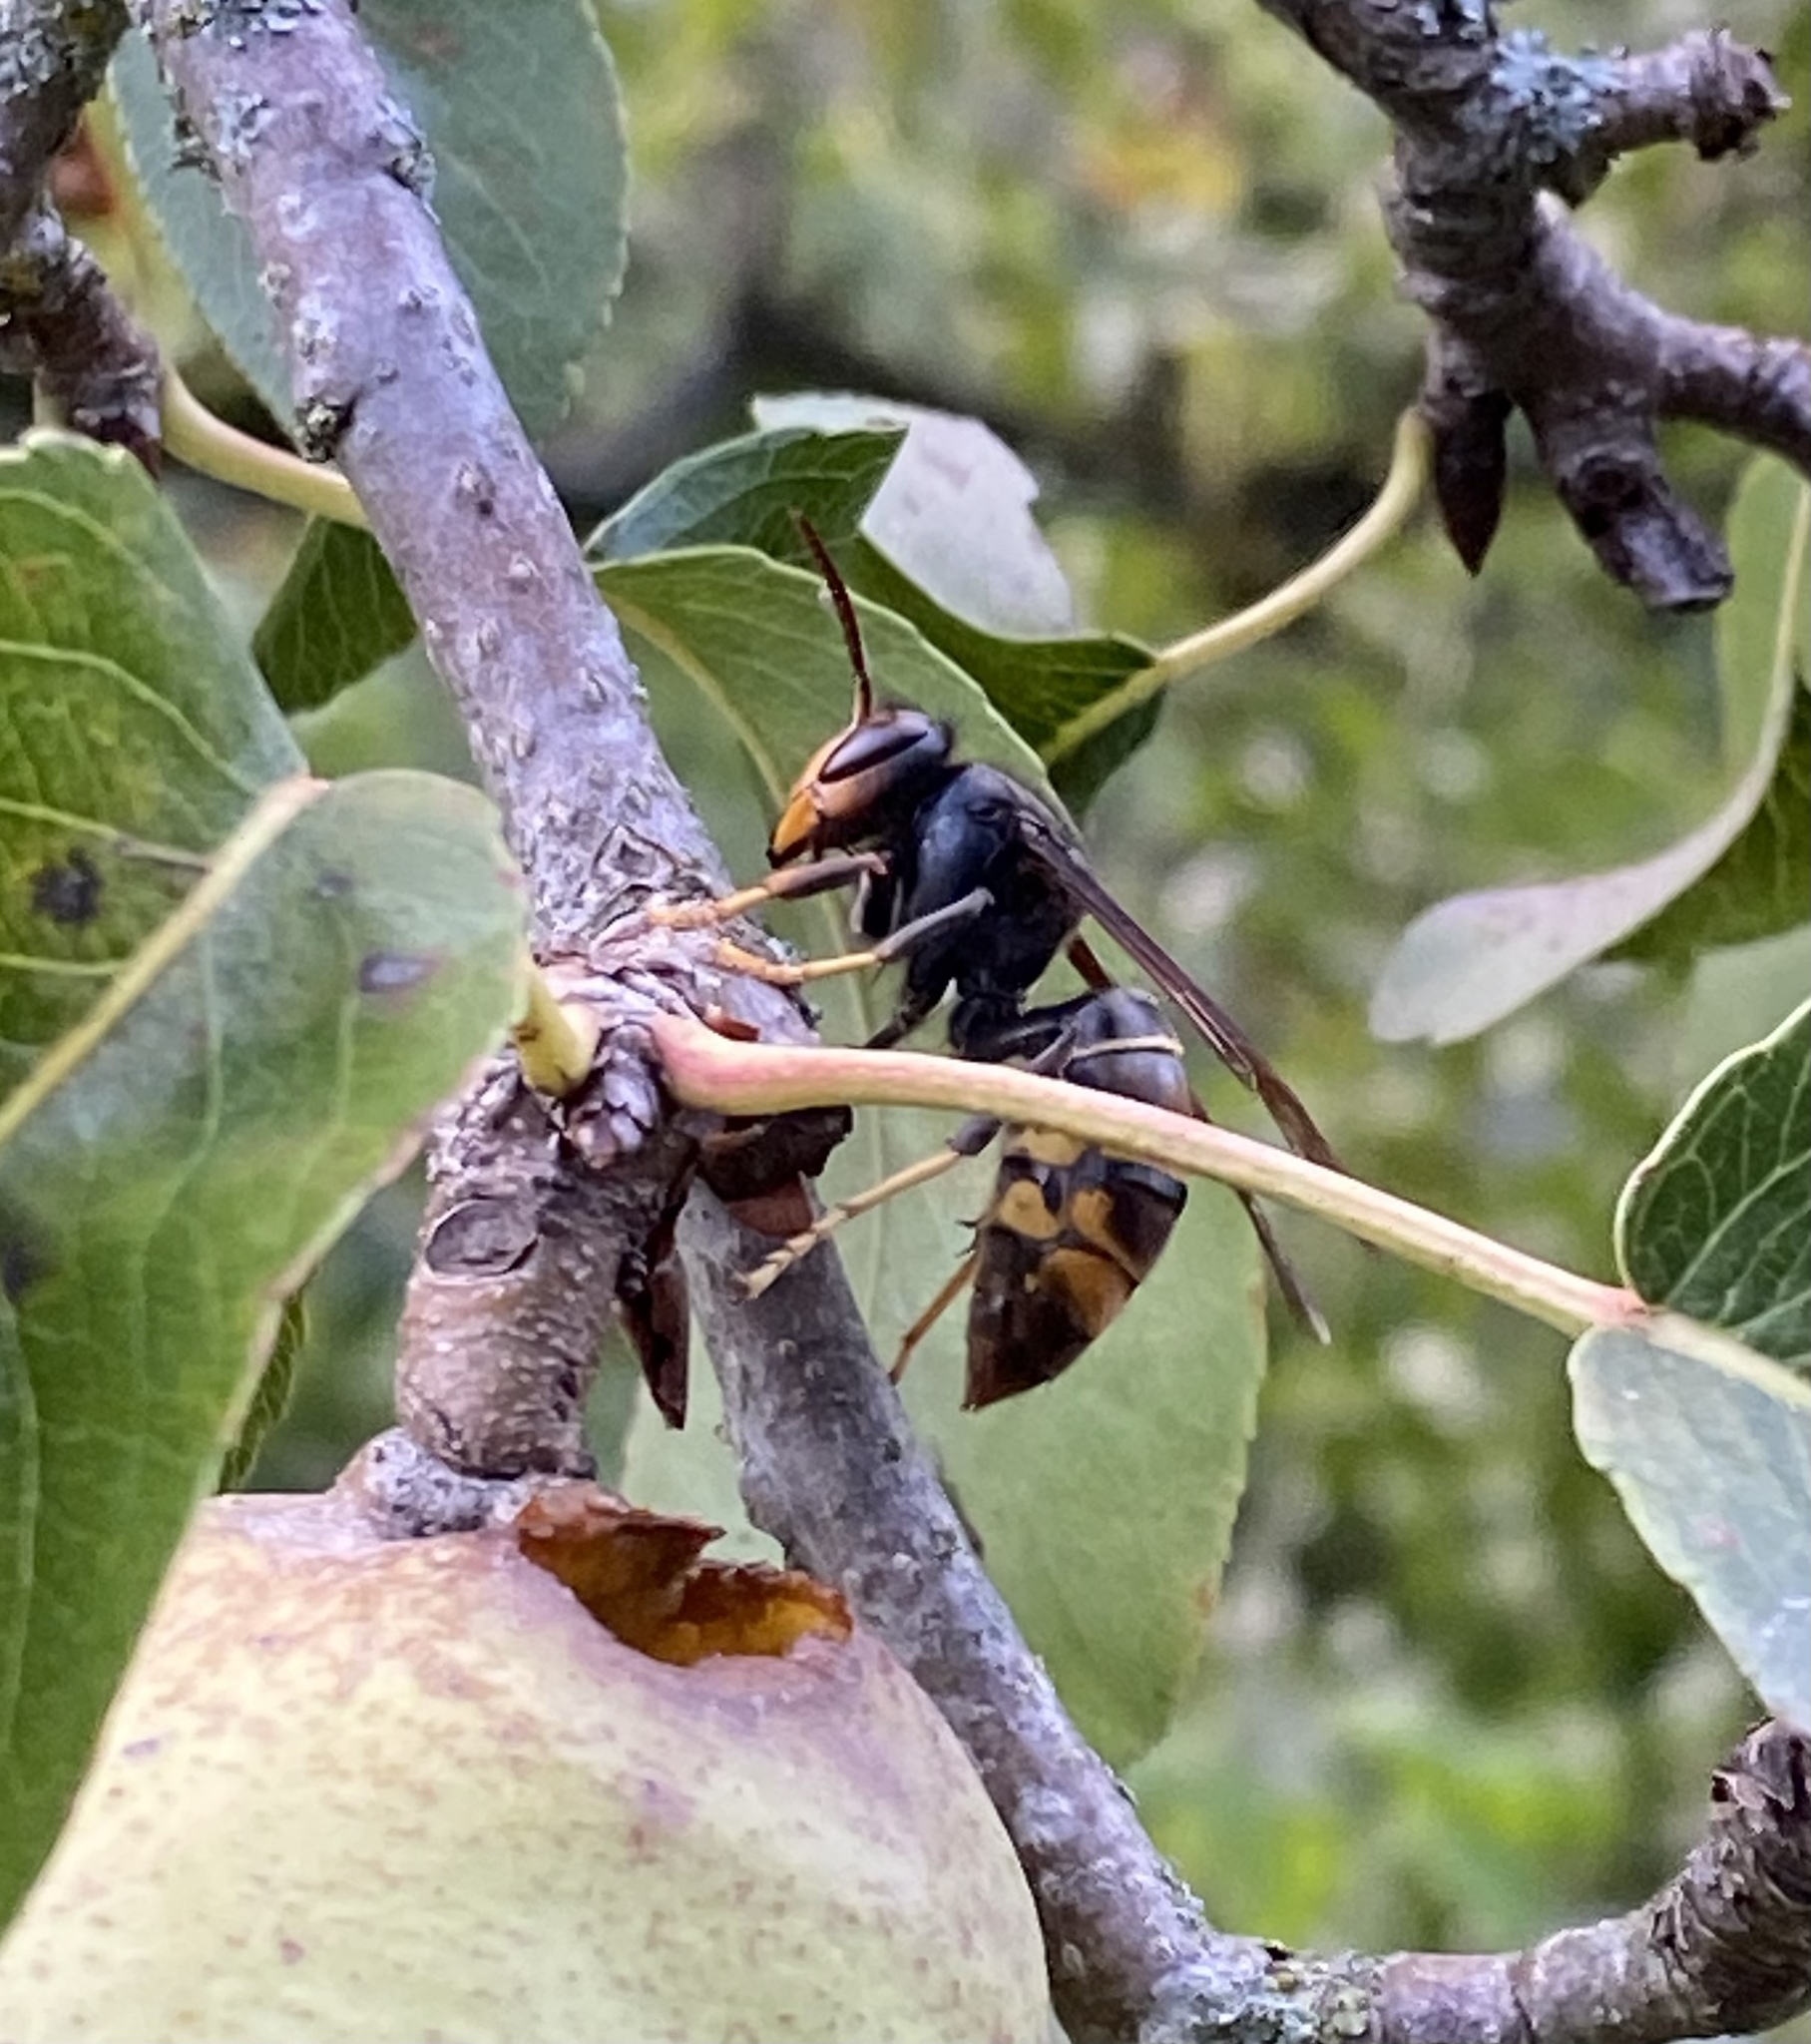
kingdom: Animalia
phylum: Arthropoda
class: Insecta
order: Hymenoptera
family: Vespidae
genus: Vespa
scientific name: Vespa velutina
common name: Asian hornet
